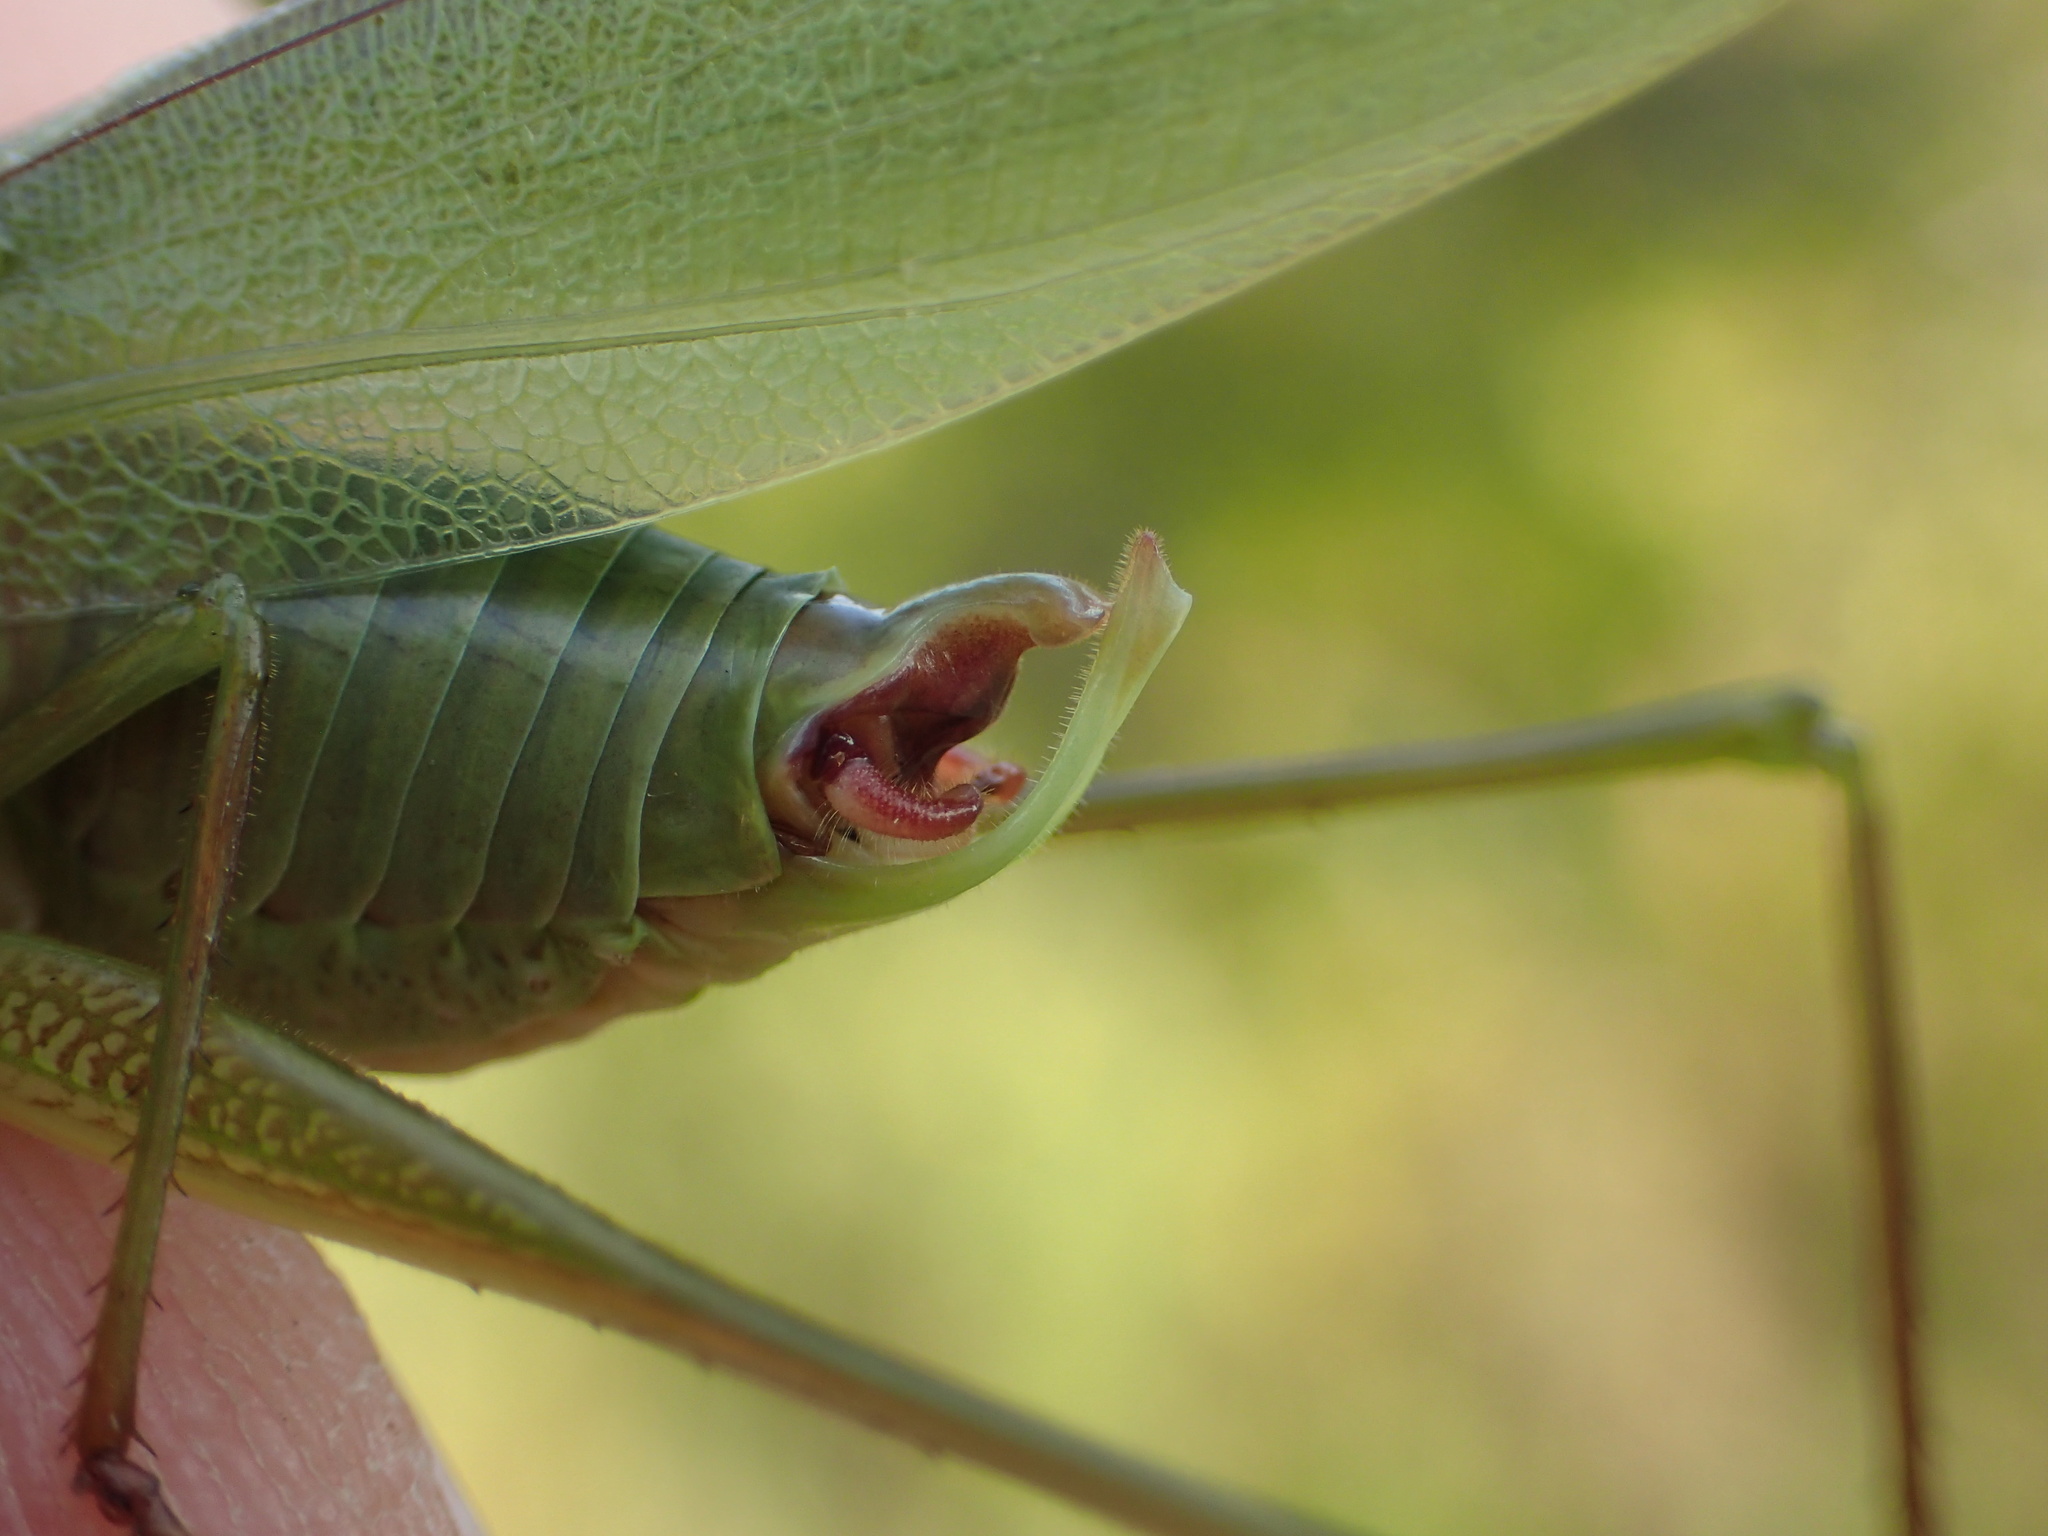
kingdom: Animalia
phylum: Arthropoda
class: Insecta
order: Orthoptera
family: Tettigoniidae
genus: Scudderia
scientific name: Scudderia curvicauda
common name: Curve-tailed bush katydid
